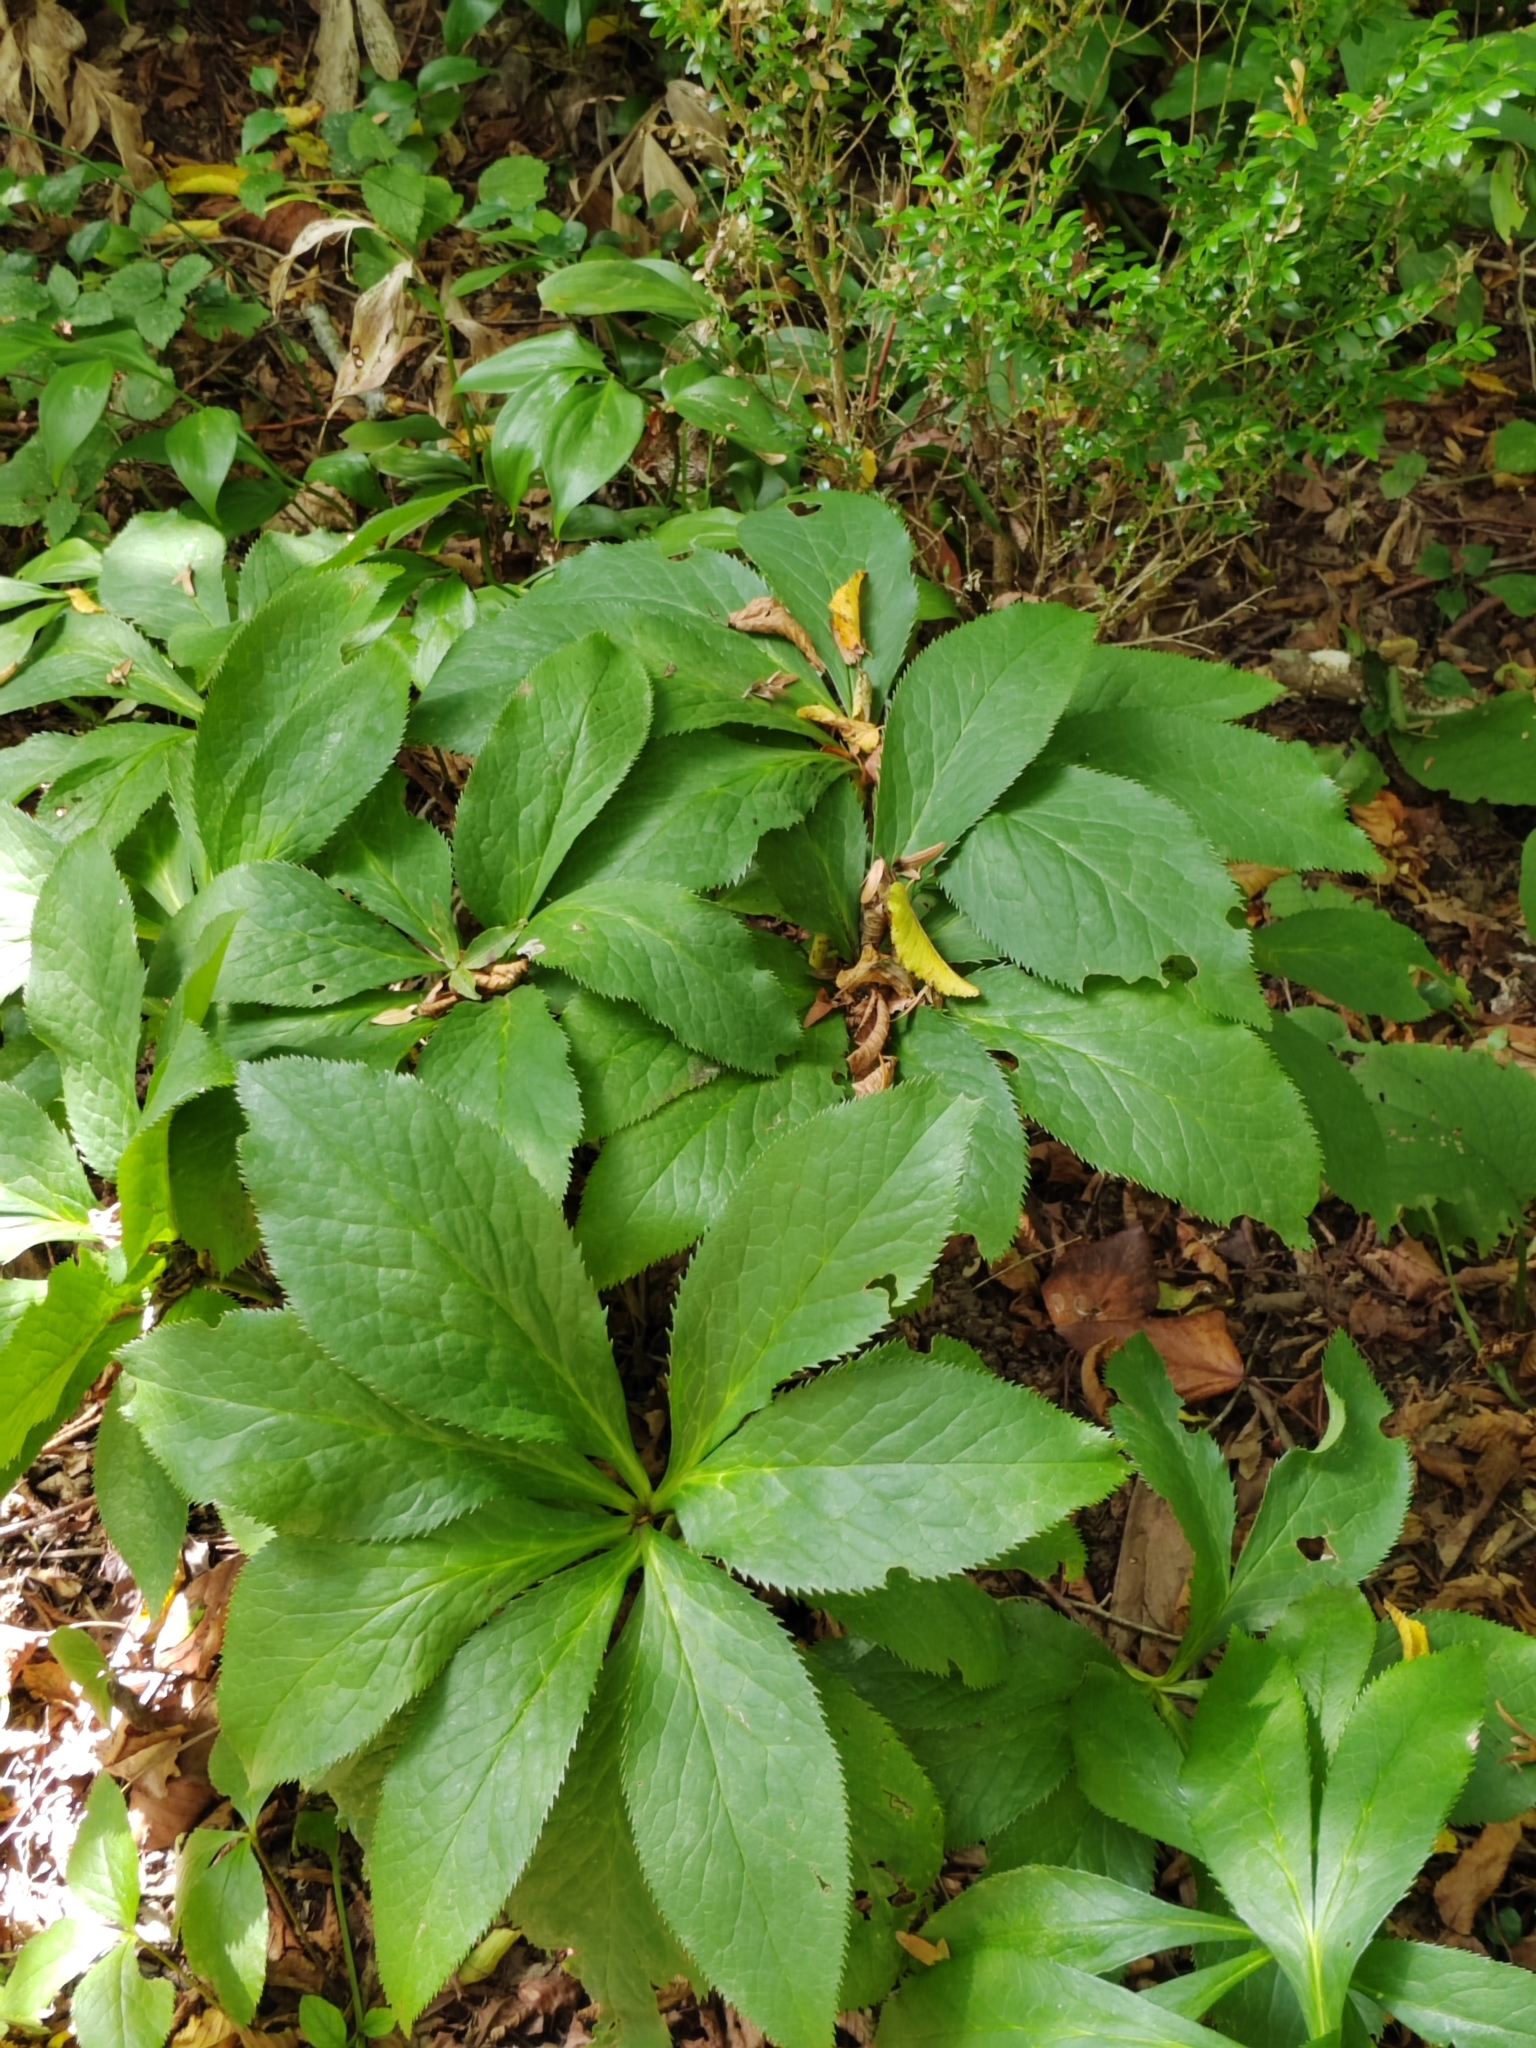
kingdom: Plantae
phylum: Tracheophyta
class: Magnoliopsida
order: Ranunculales
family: Ranunculaceae
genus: Helleborus
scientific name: Helleborus orientalis
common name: Lenten-rose
